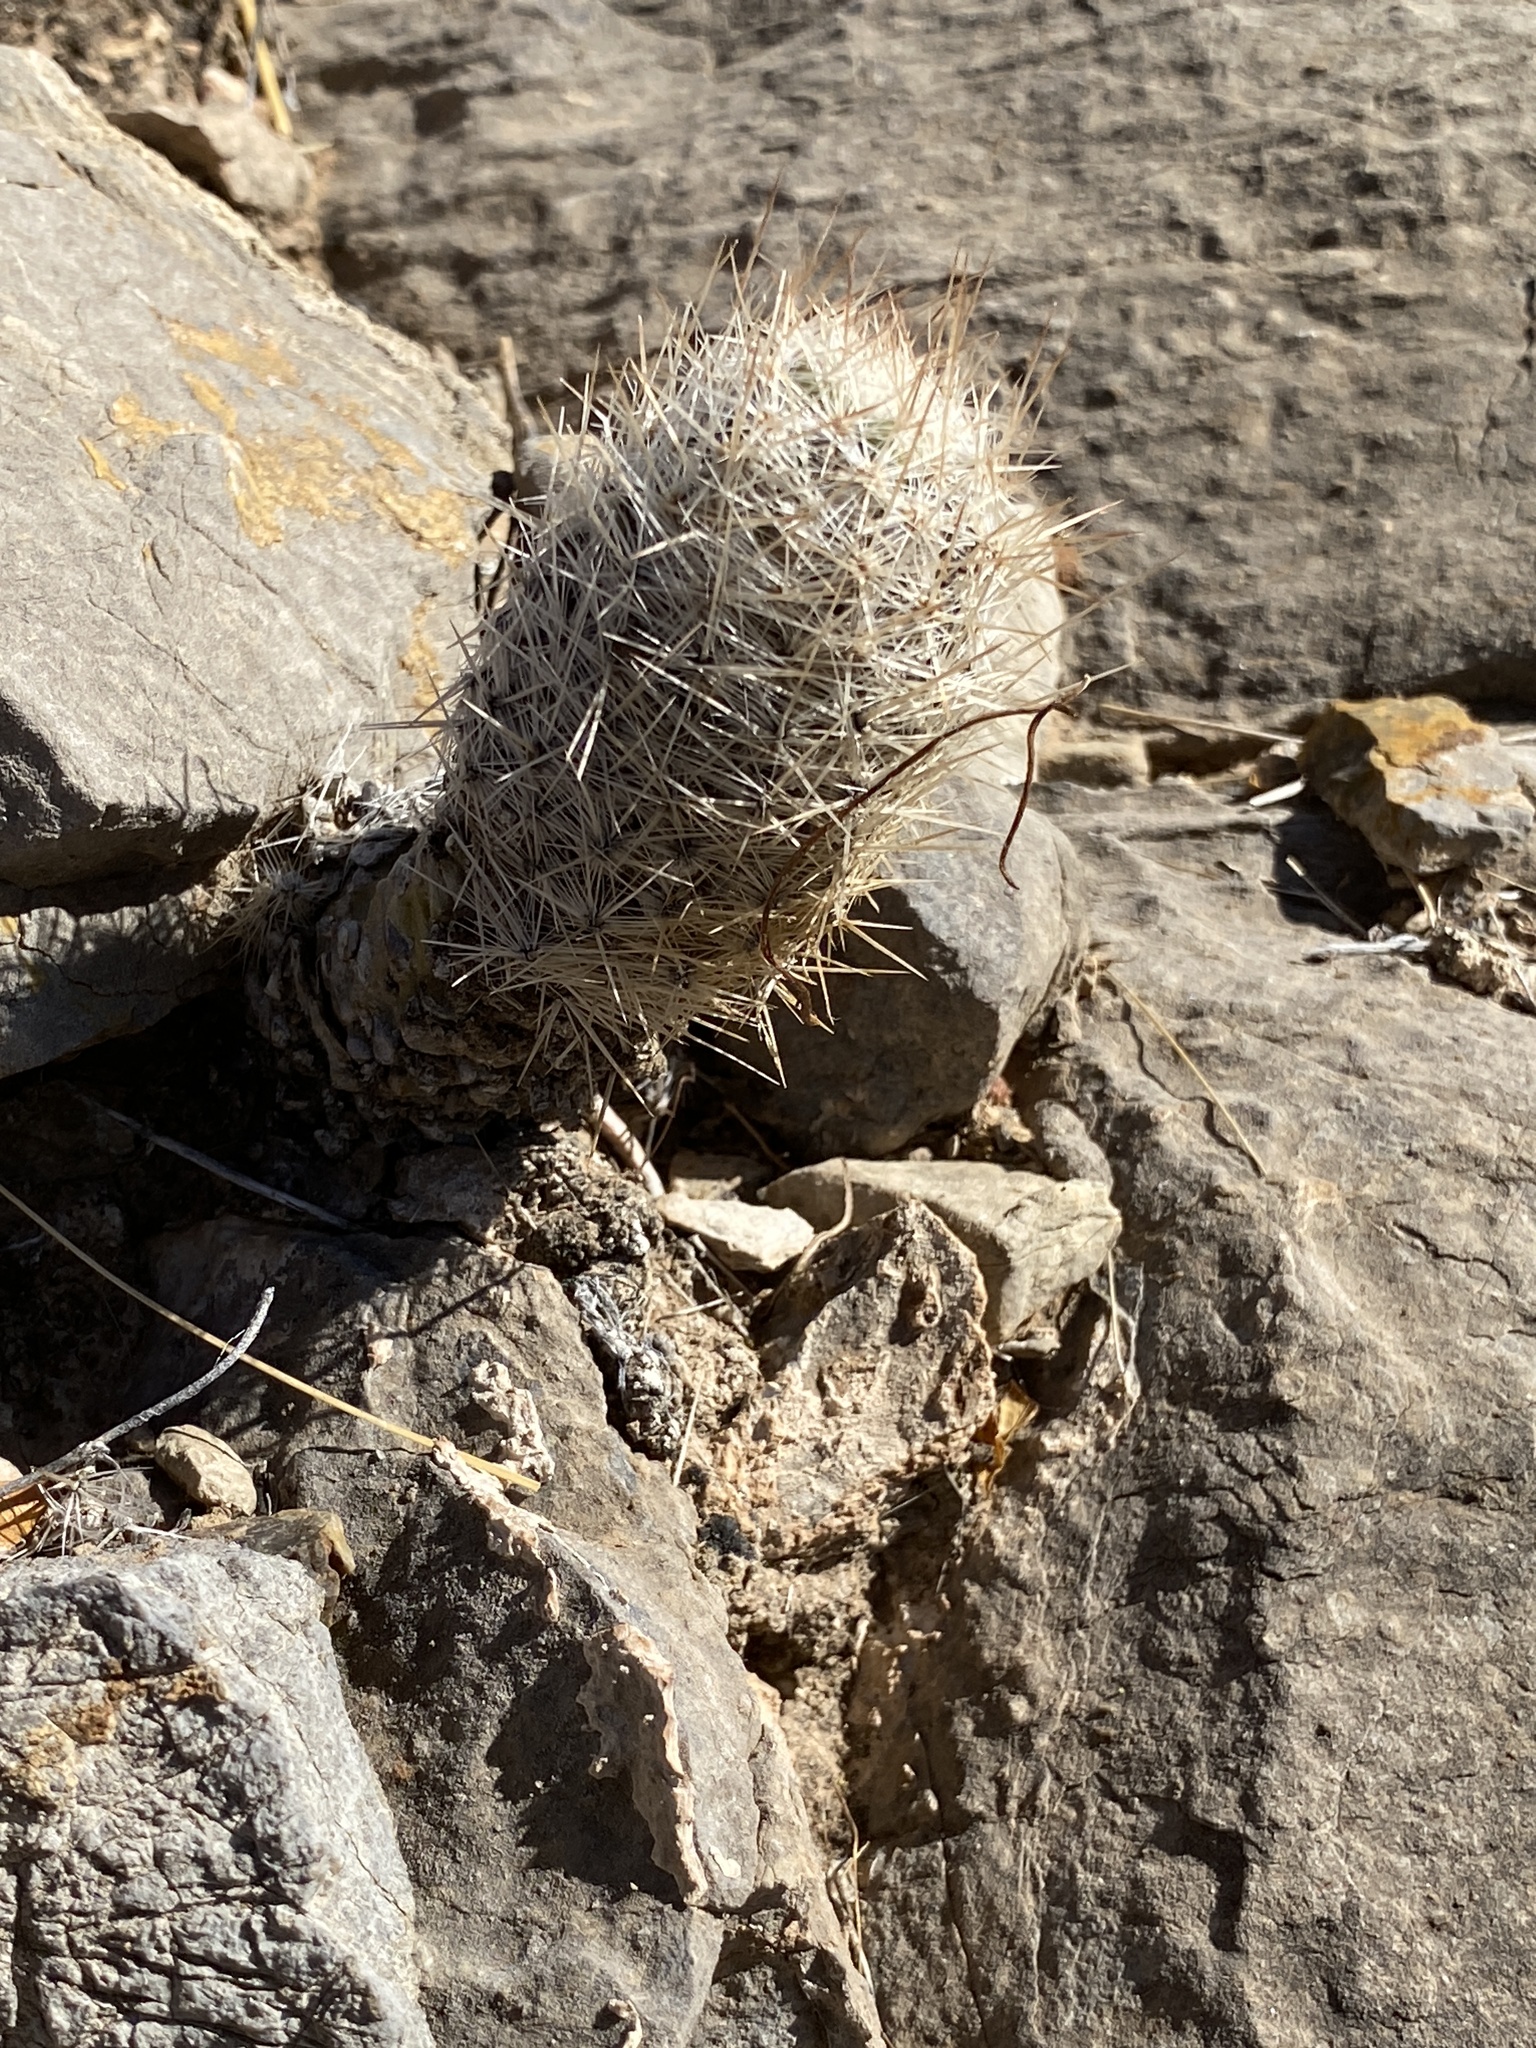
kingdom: Plantae
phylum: Tracheophyta
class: Magnoliopsida
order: Caryophyllales
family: Cactaceae
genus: Pelecyphora
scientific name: Pelecyphora tuberculosa
